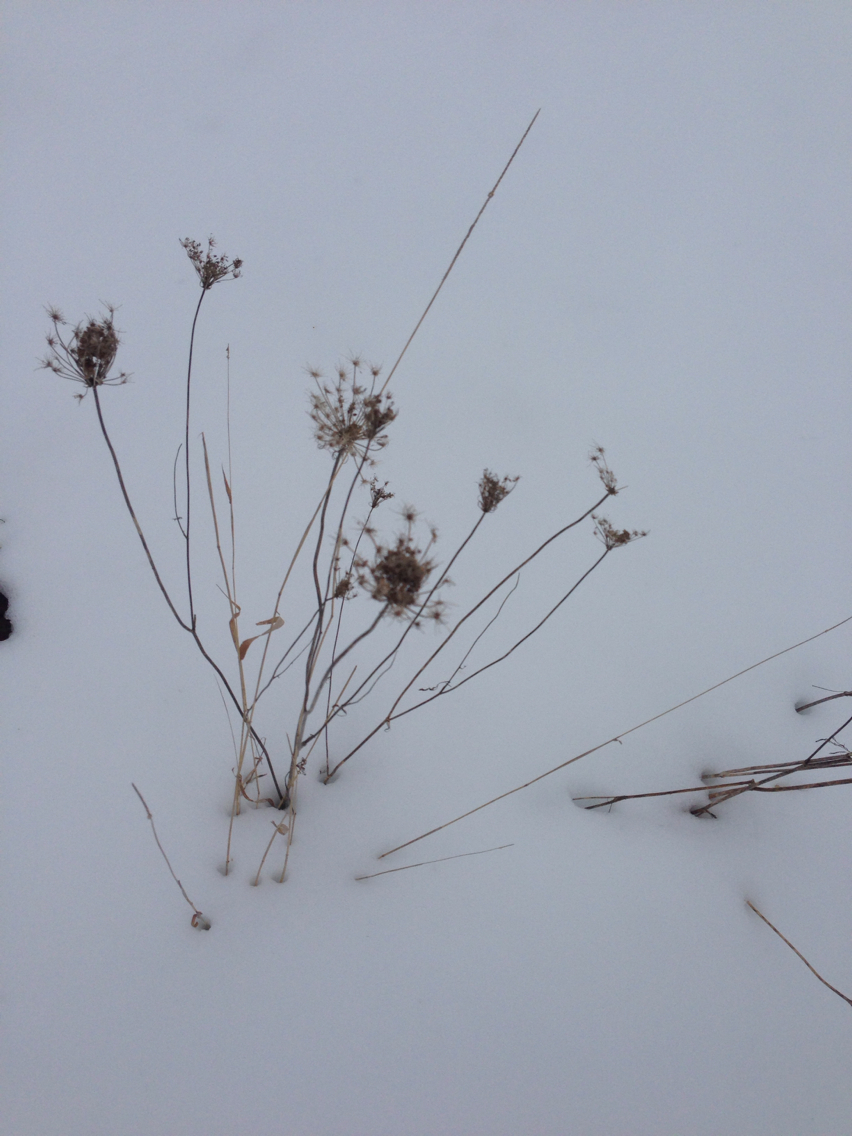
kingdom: Plantae
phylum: Tracheophyta
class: Magnoliopsida
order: Apiales
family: Apiaceae
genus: Daucus
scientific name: Daucus carota
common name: Wild carrot
